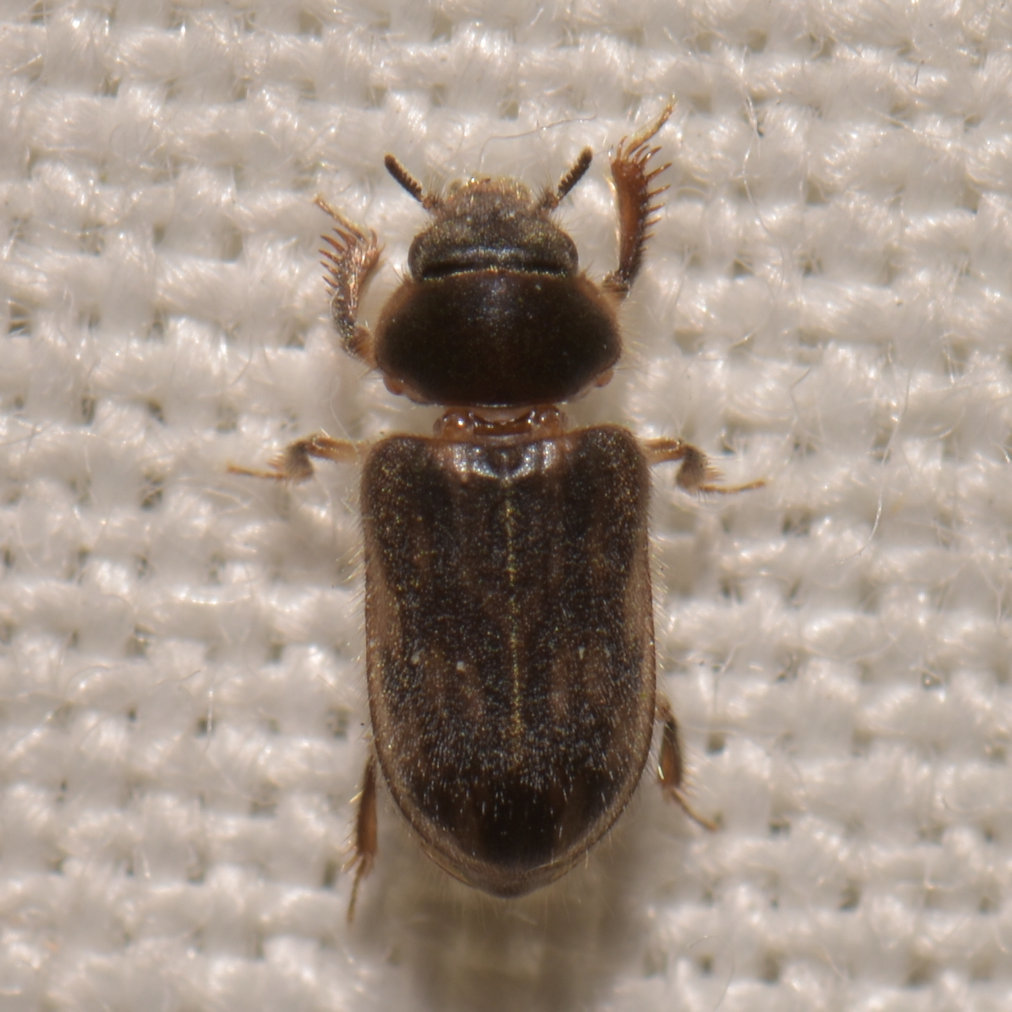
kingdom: Animalia
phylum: Arthropoda
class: Insecta
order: Coleoptera
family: Heteroceridae
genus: Heterocerus
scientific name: Heterocerus fenestratus
